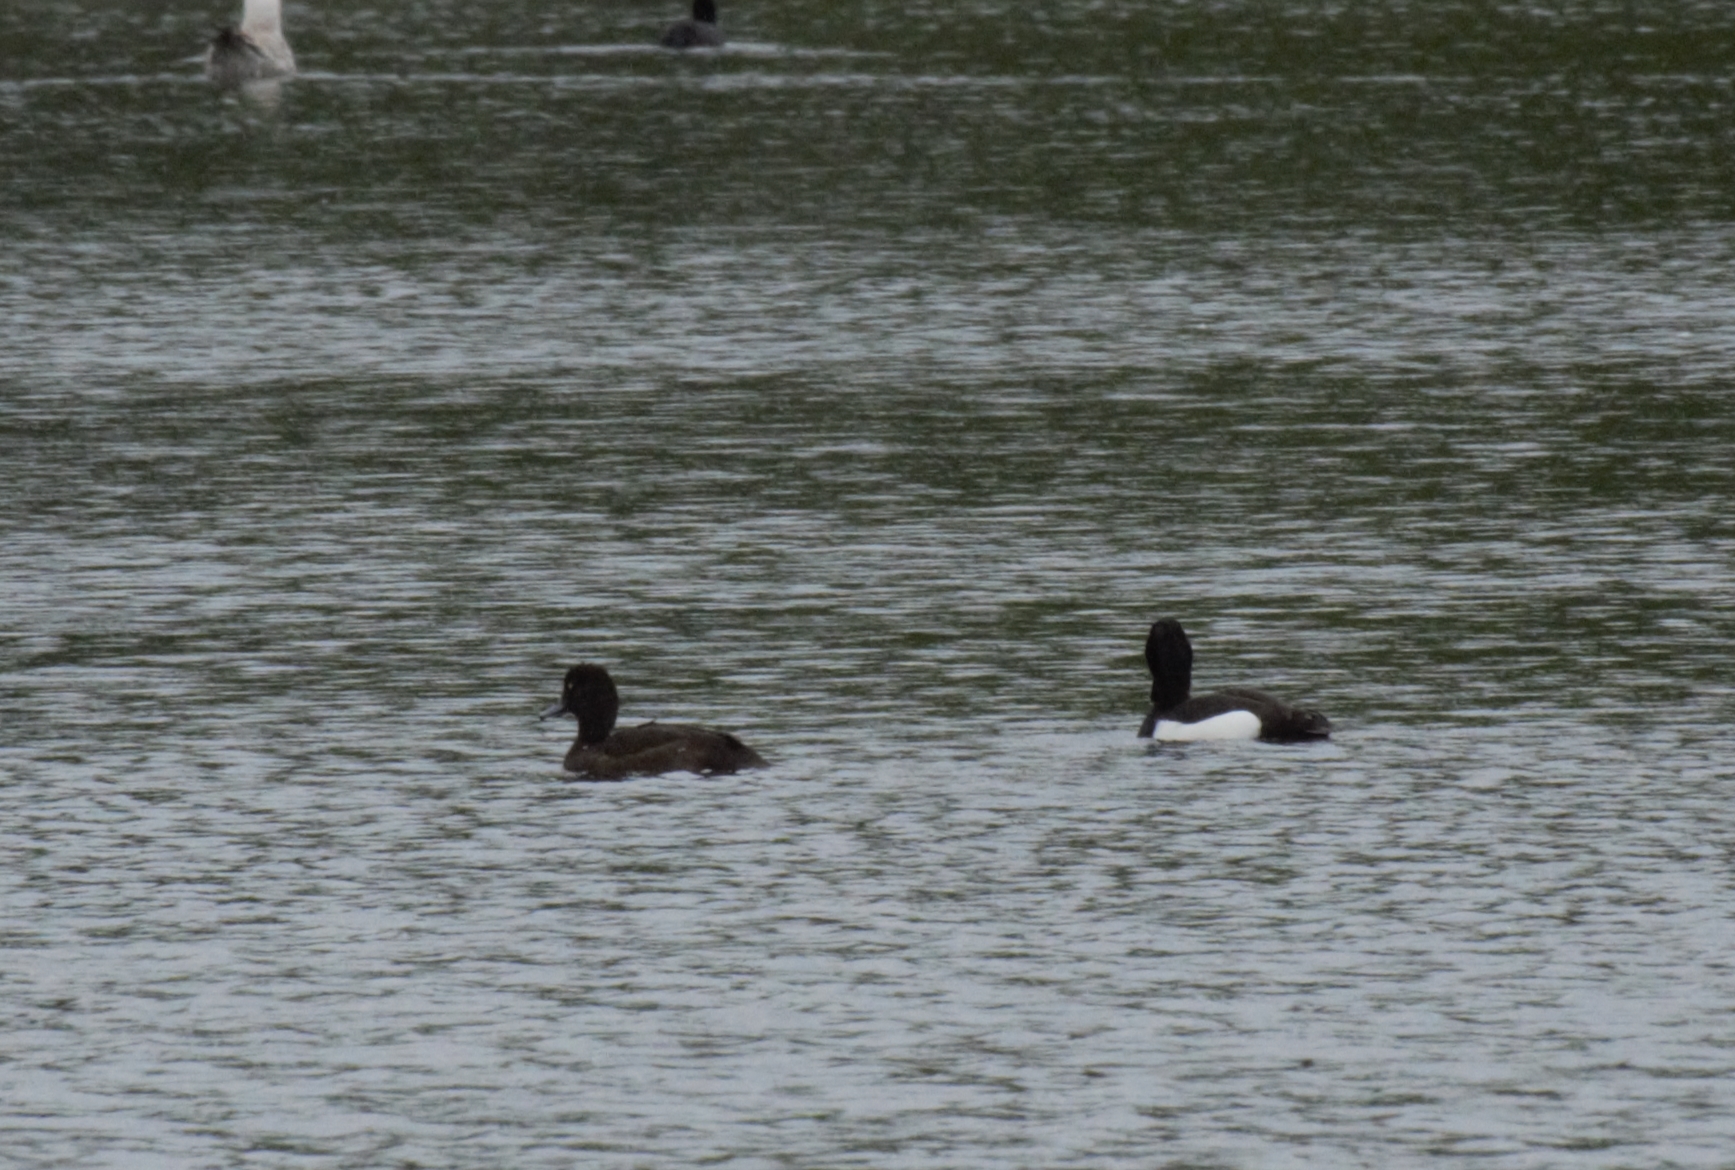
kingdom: Animalia
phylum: Chordata
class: Aves
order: Anseriformes
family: Anatidae
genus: Aythya
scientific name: Aythya fuligula
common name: Tufted duck
